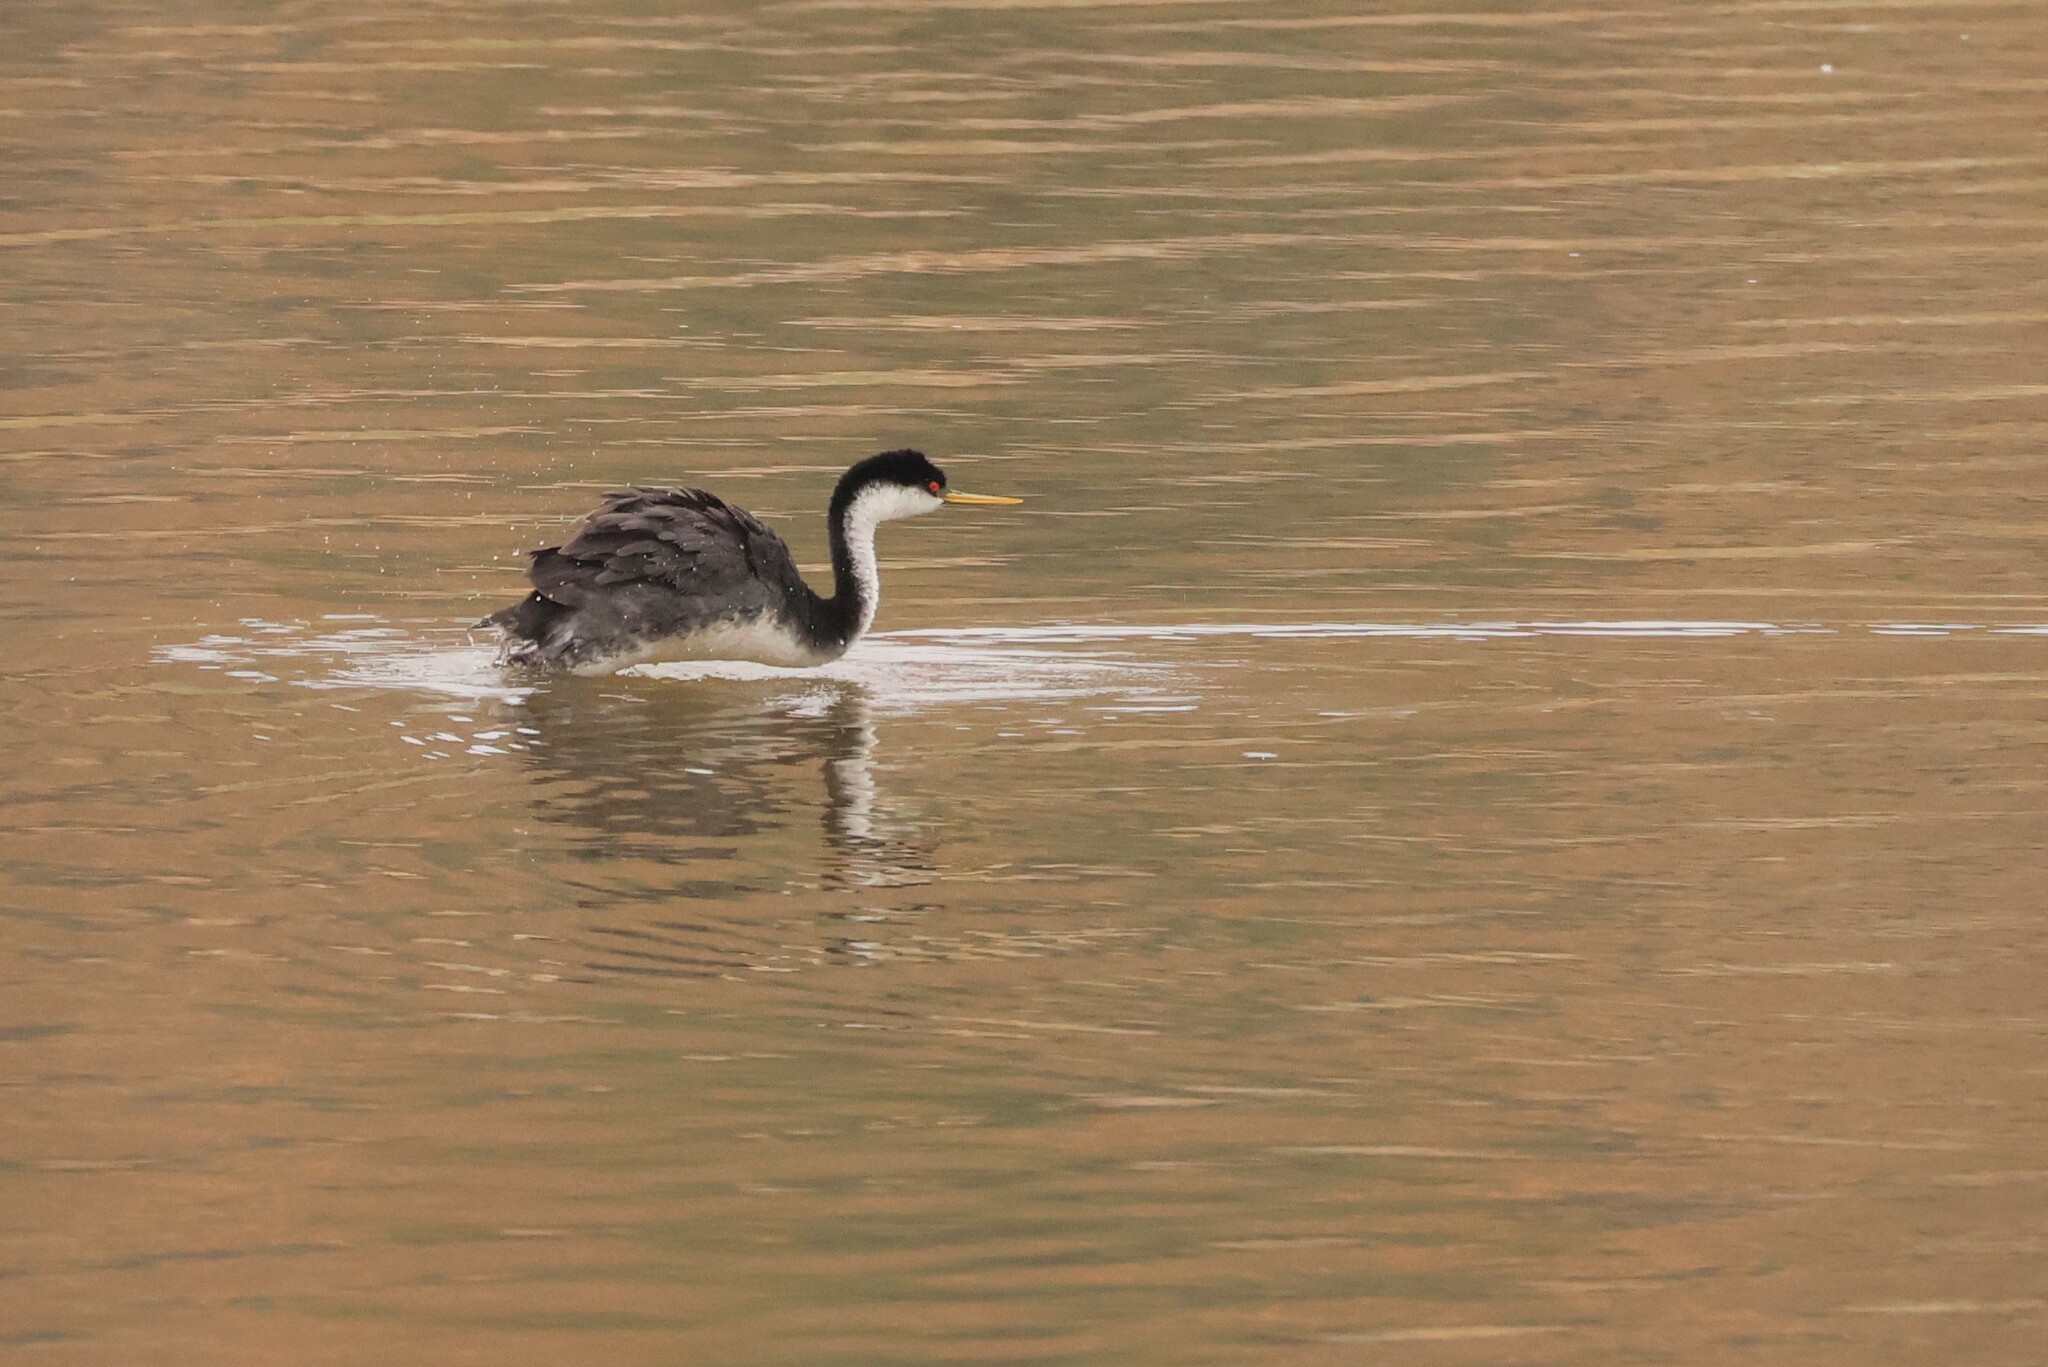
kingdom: Animalia
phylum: Chordata
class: Aves
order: Podicipediformes
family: Podicipedidae
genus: Aechmophorus
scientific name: Aechmophorus occidentalis
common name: Western grebe
